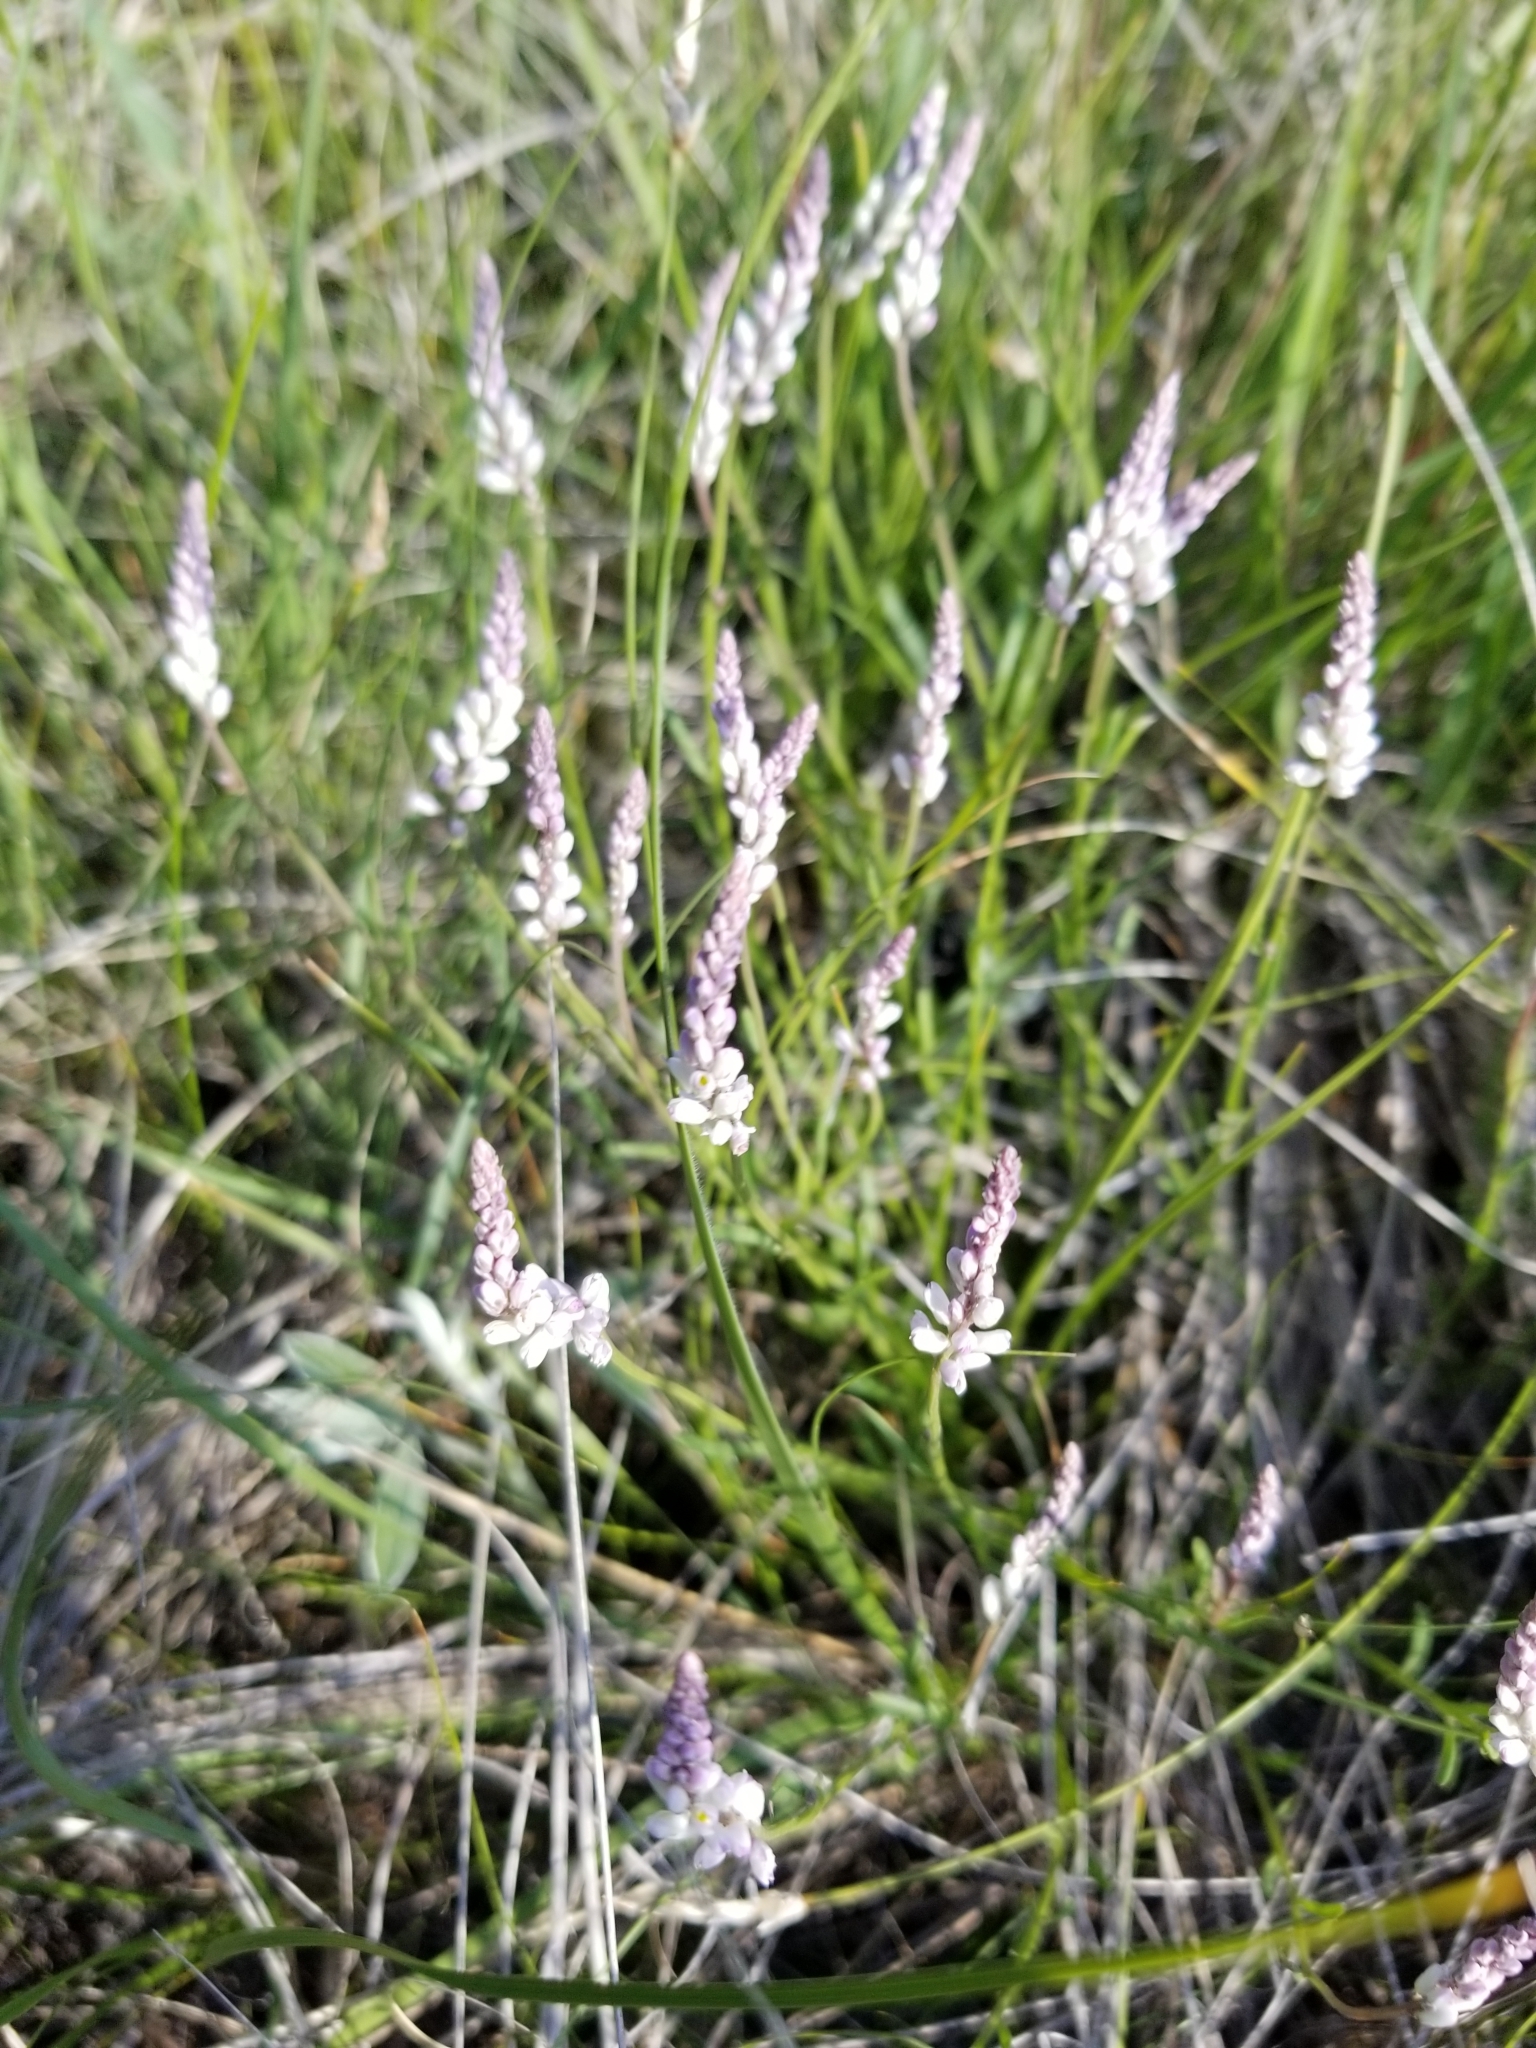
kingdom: Plantae
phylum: Tracheophyta
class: Magnoliopsida
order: Fabales
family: Polygalaceae
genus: Polygala
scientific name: Polygala alba
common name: White milkwort
